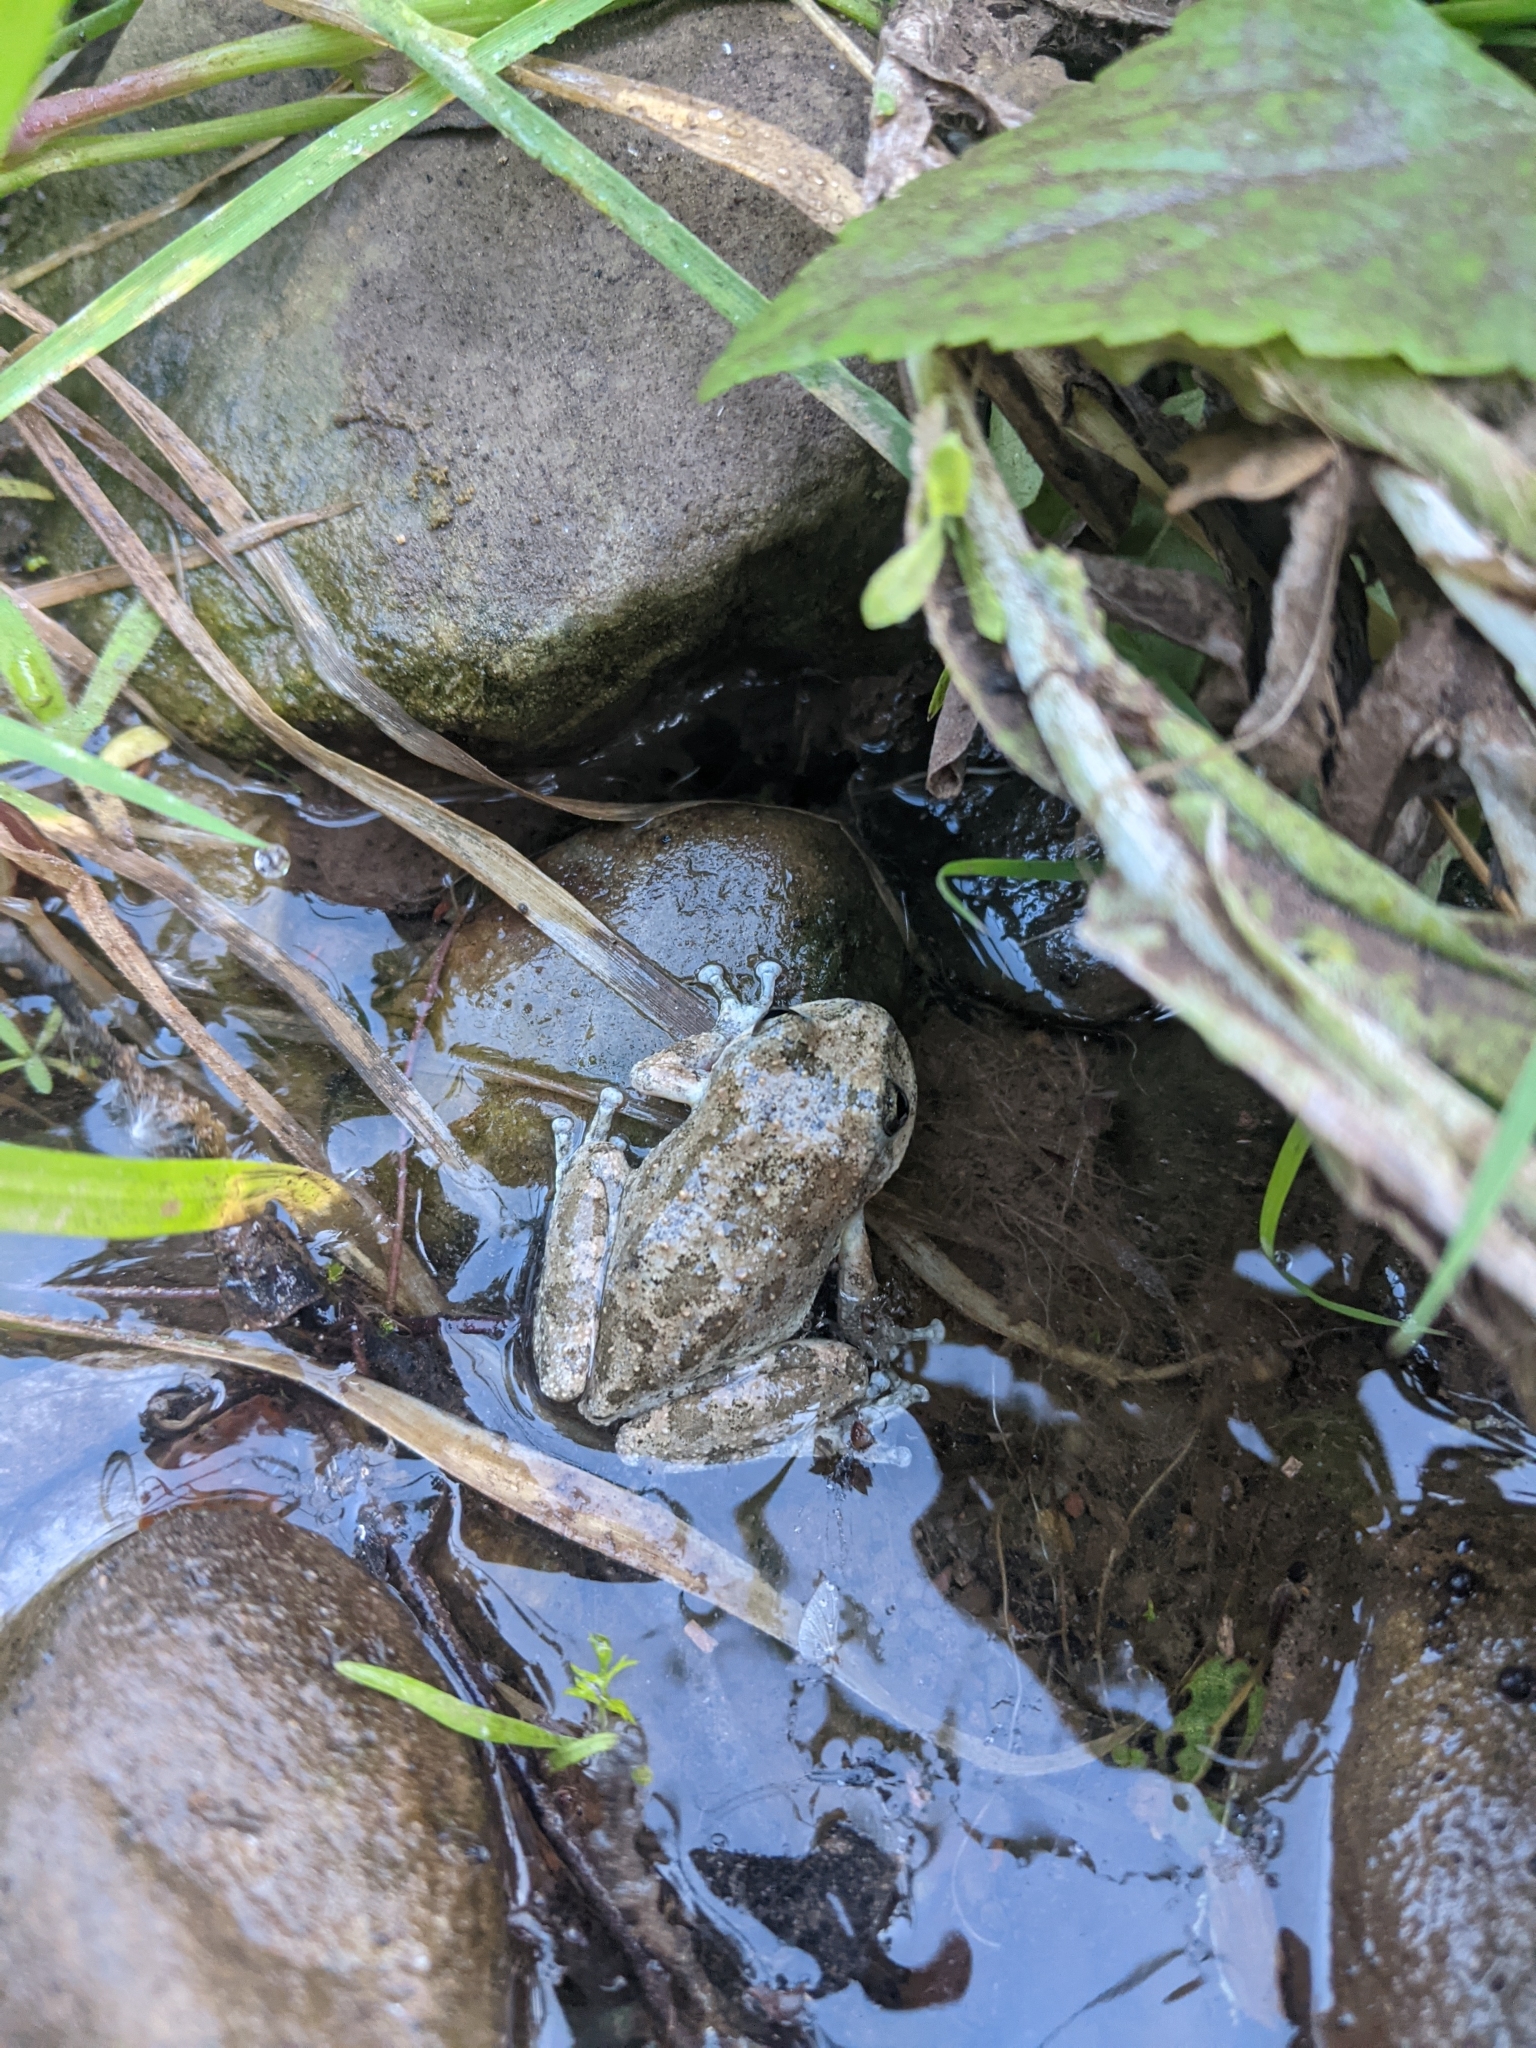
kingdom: Animalia
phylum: Chordata
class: Amphibia
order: Anura
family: Hylidae
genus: Pseudacris
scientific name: Pseudacris cadaverina
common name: California chorus frog
